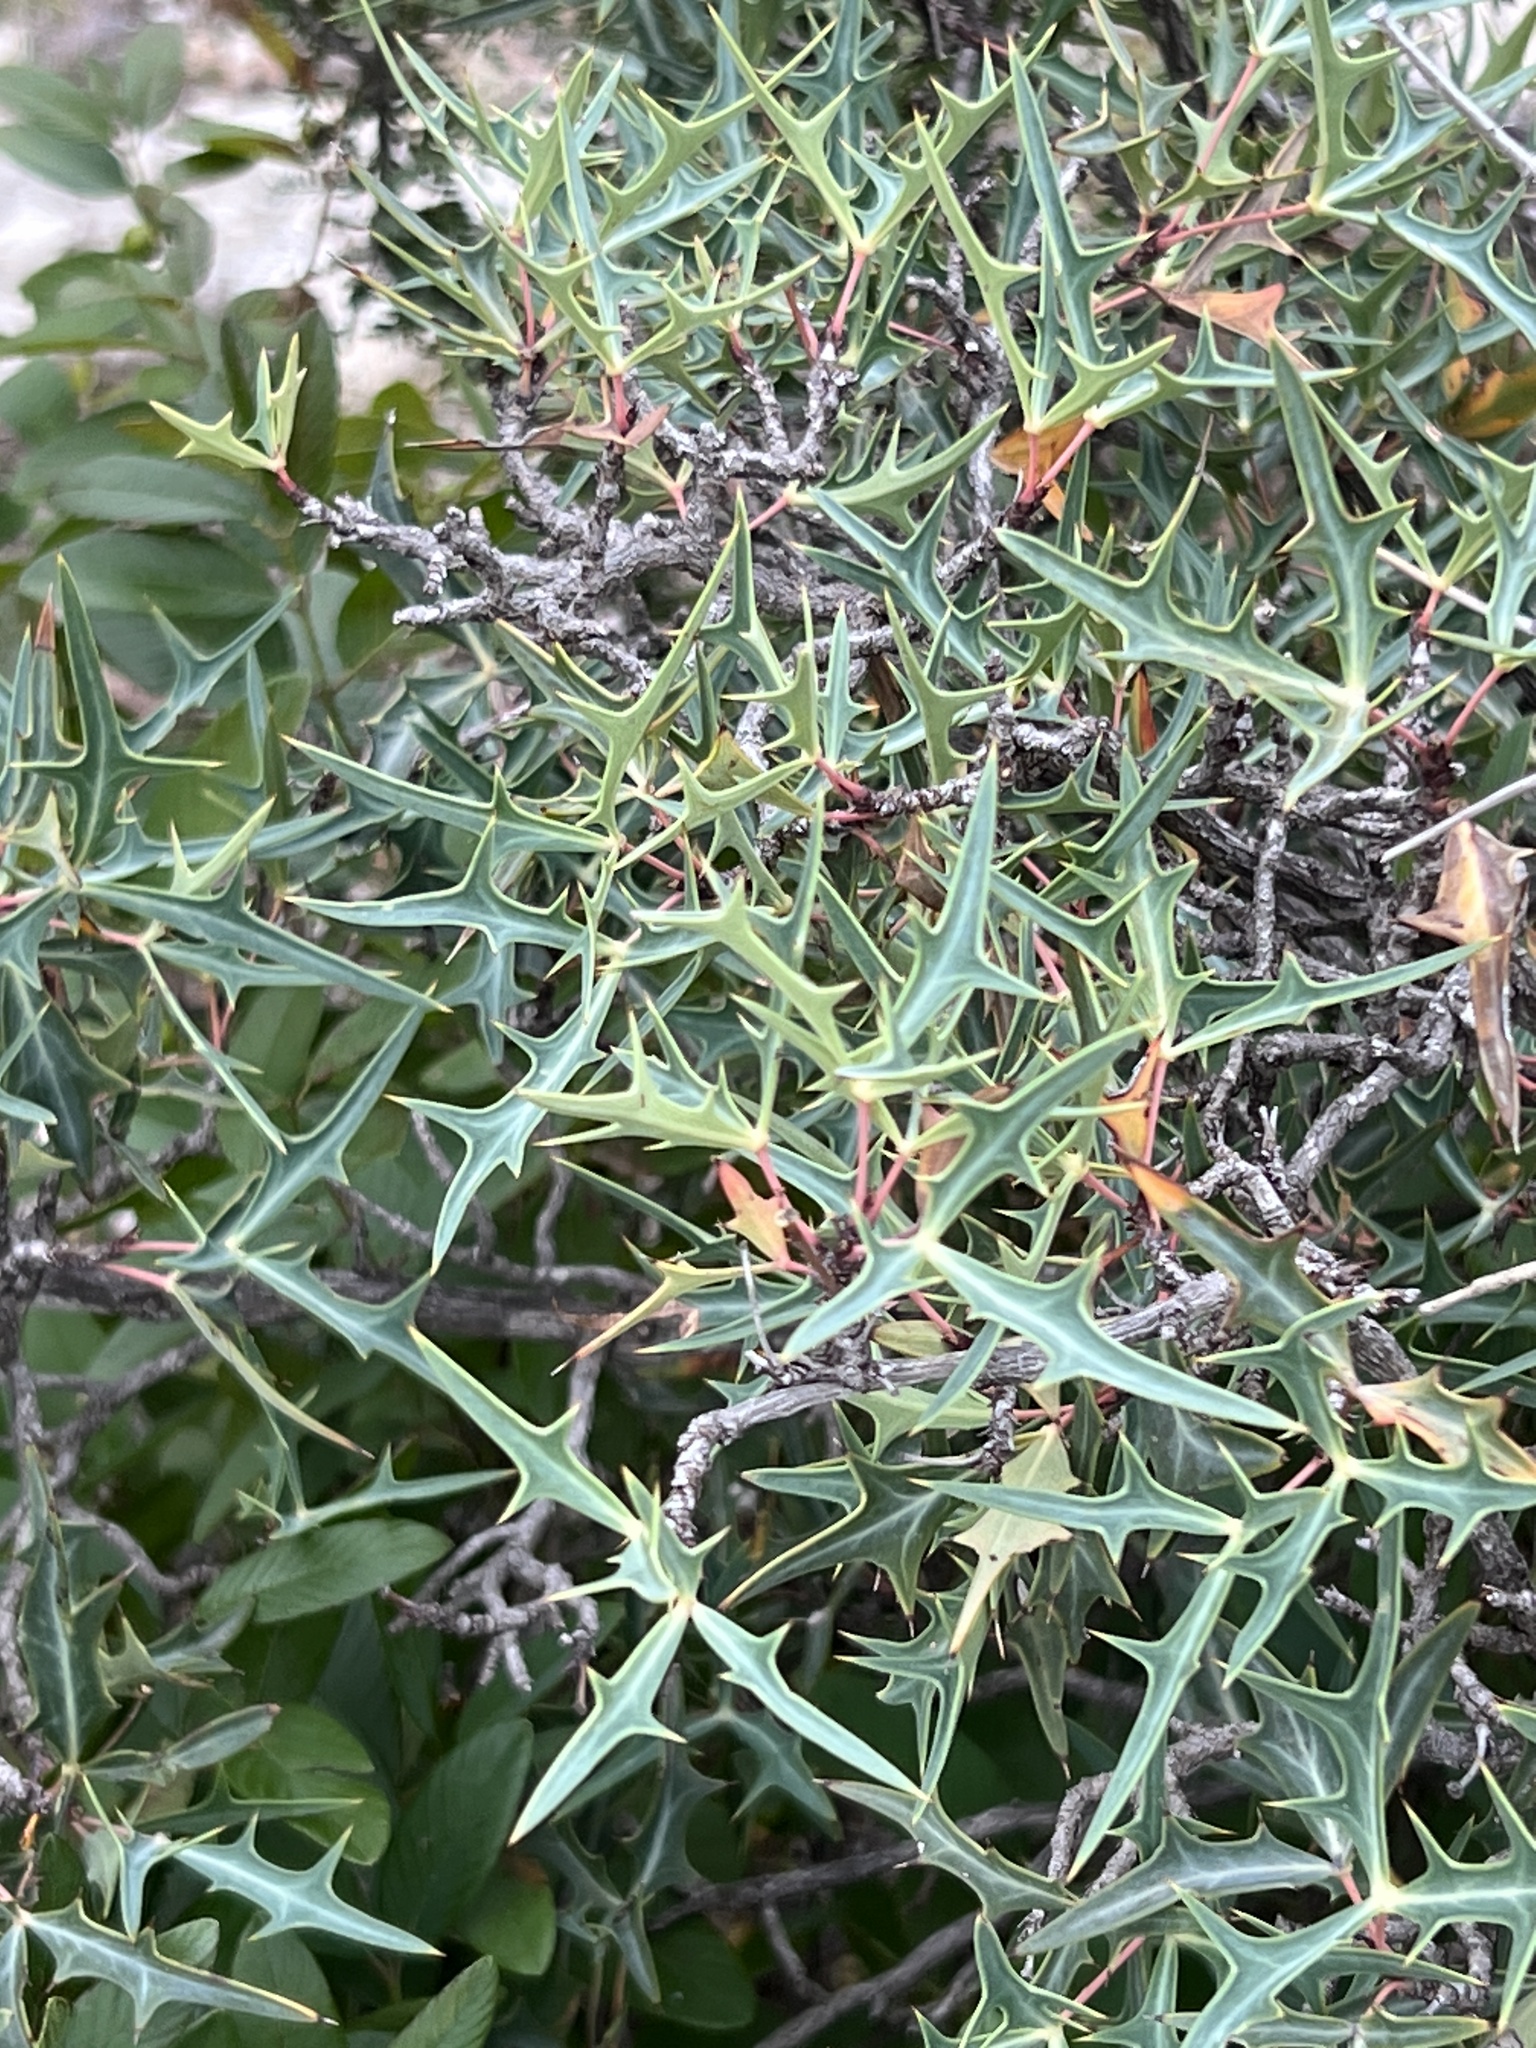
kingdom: Plantae
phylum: Tracheophyta
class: Magnoliopsida
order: Ranunculales
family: Berberidaceae
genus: Alloberberis
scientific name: Alloberberis trifoliolata
